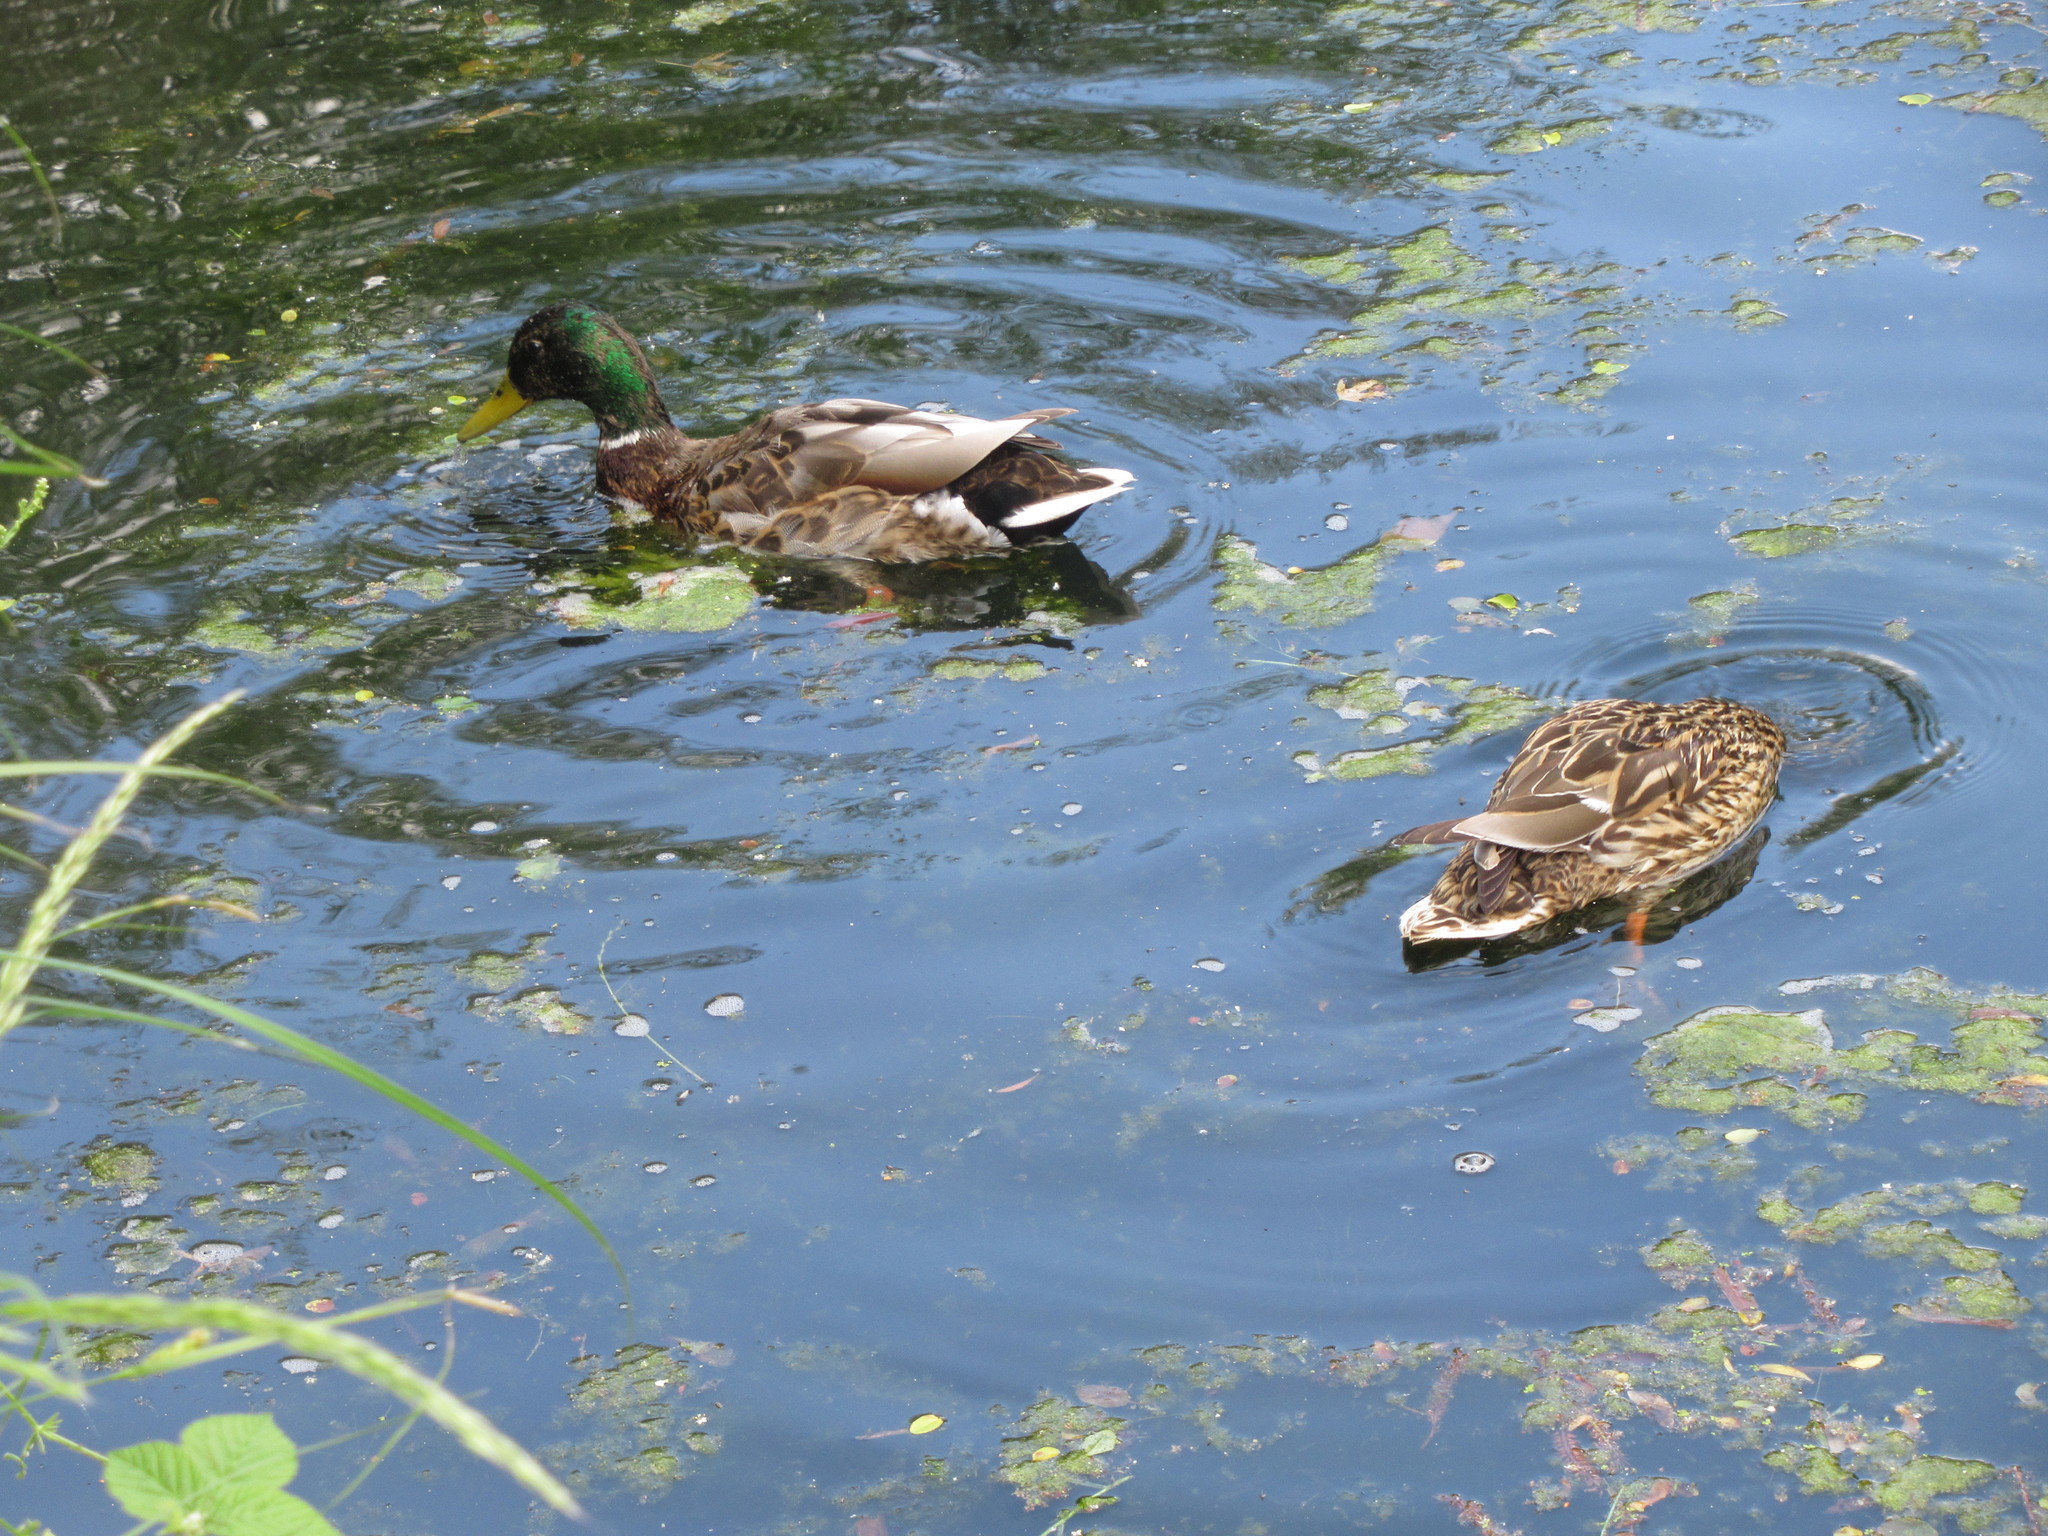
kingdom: Animalia
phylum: Chordata
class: Aves
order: Anseriformes
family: Anatidae
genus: Anas
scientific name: Anas platyrhynchos
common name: Mallard
